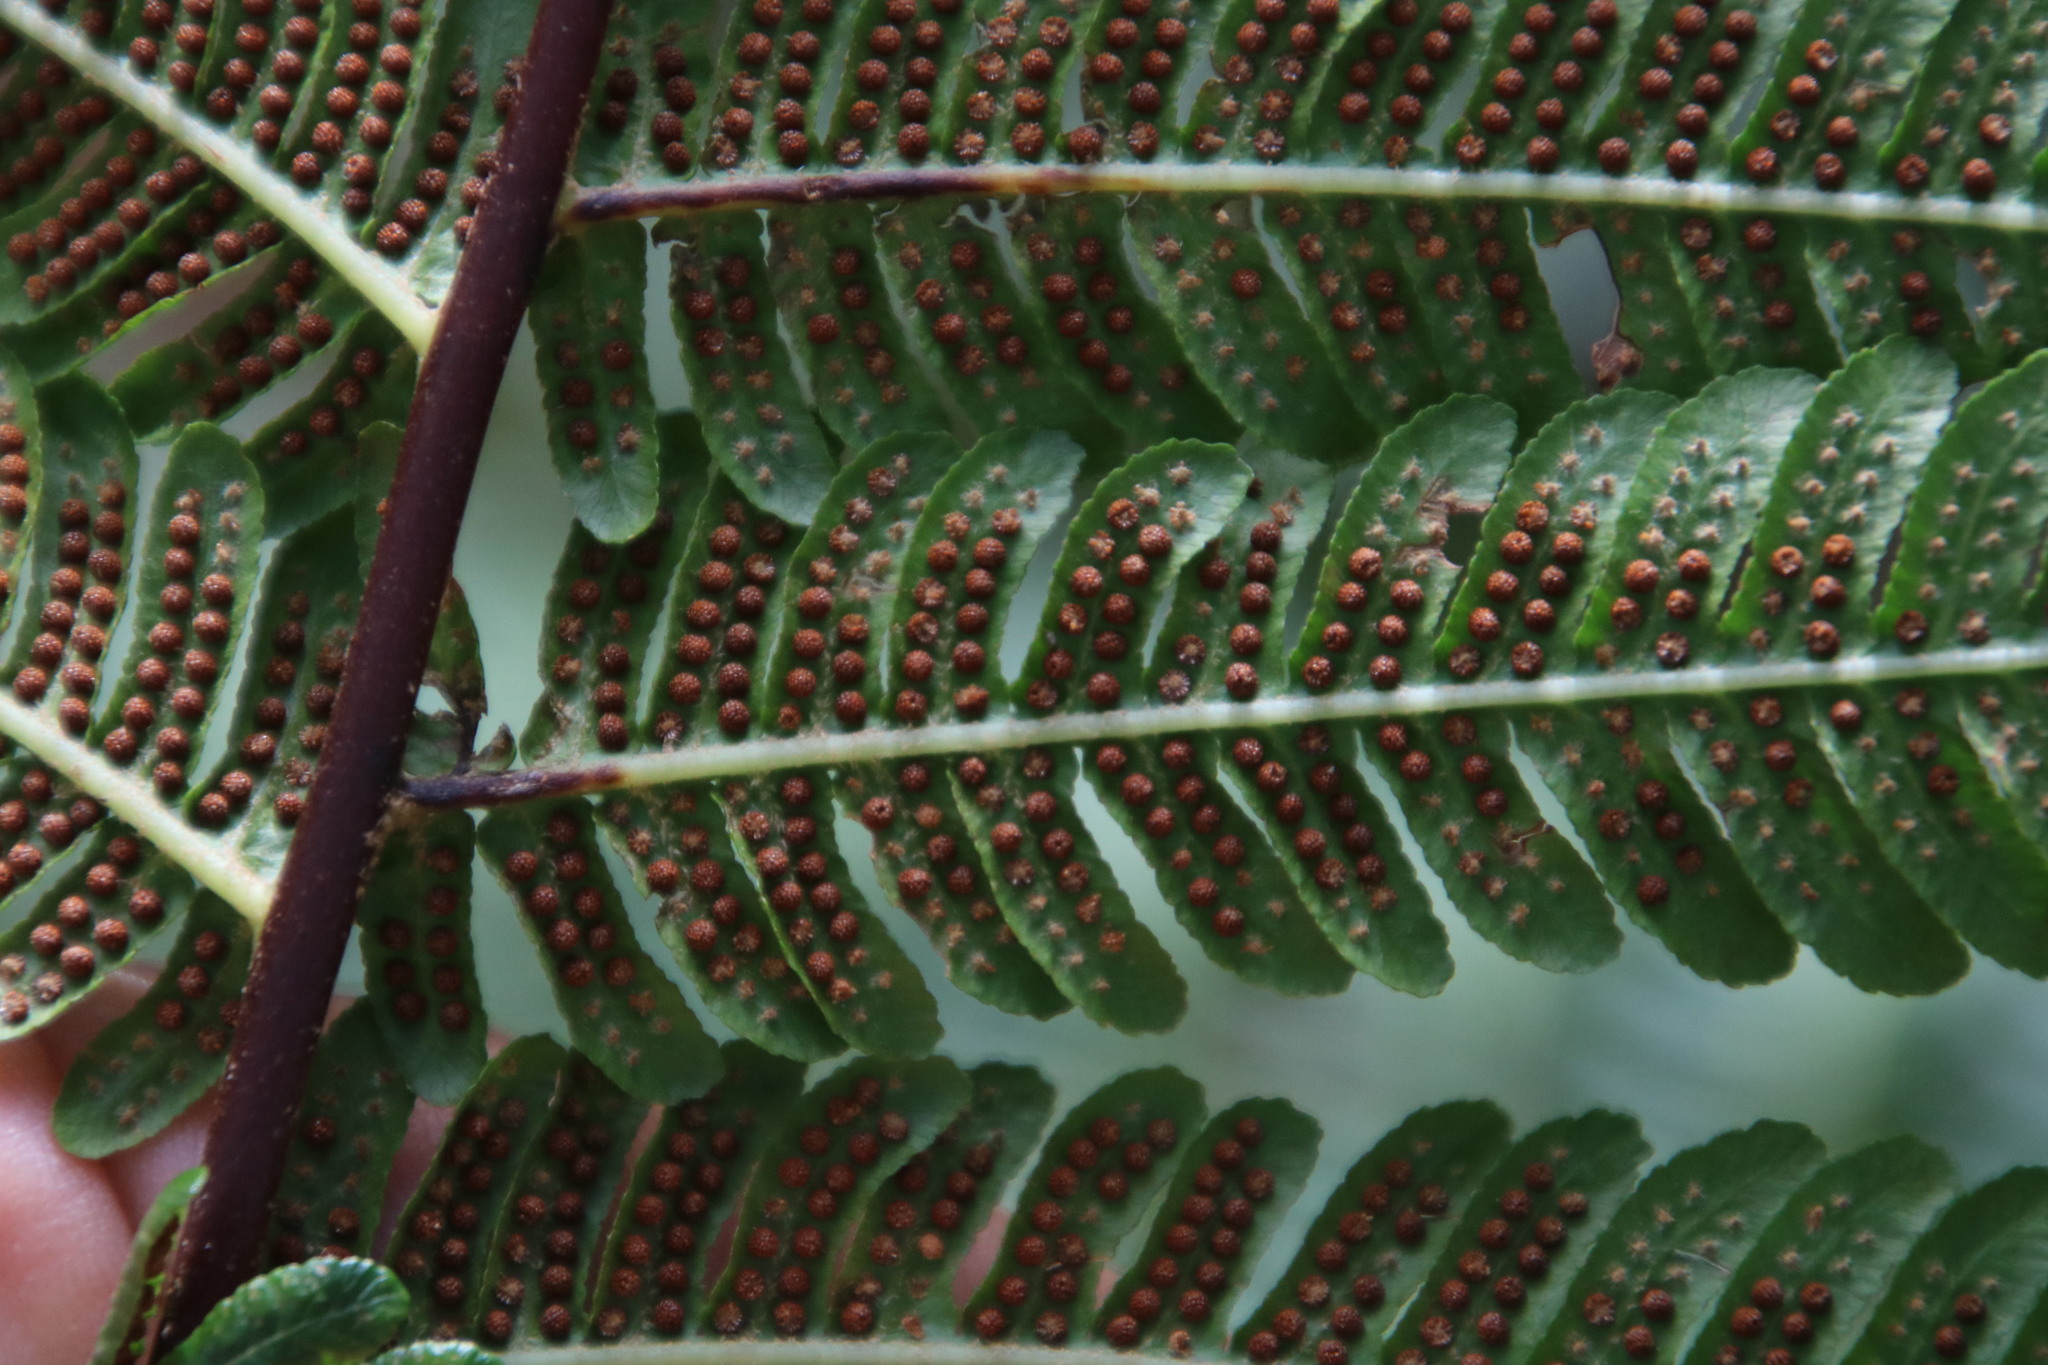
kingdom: Plantae
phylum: Tracheophyta
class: Polypodiopsida
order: Cyatheales
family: Cyatheaceae
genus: Sphaeropteris
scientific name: Sphaeropteris cooperi
